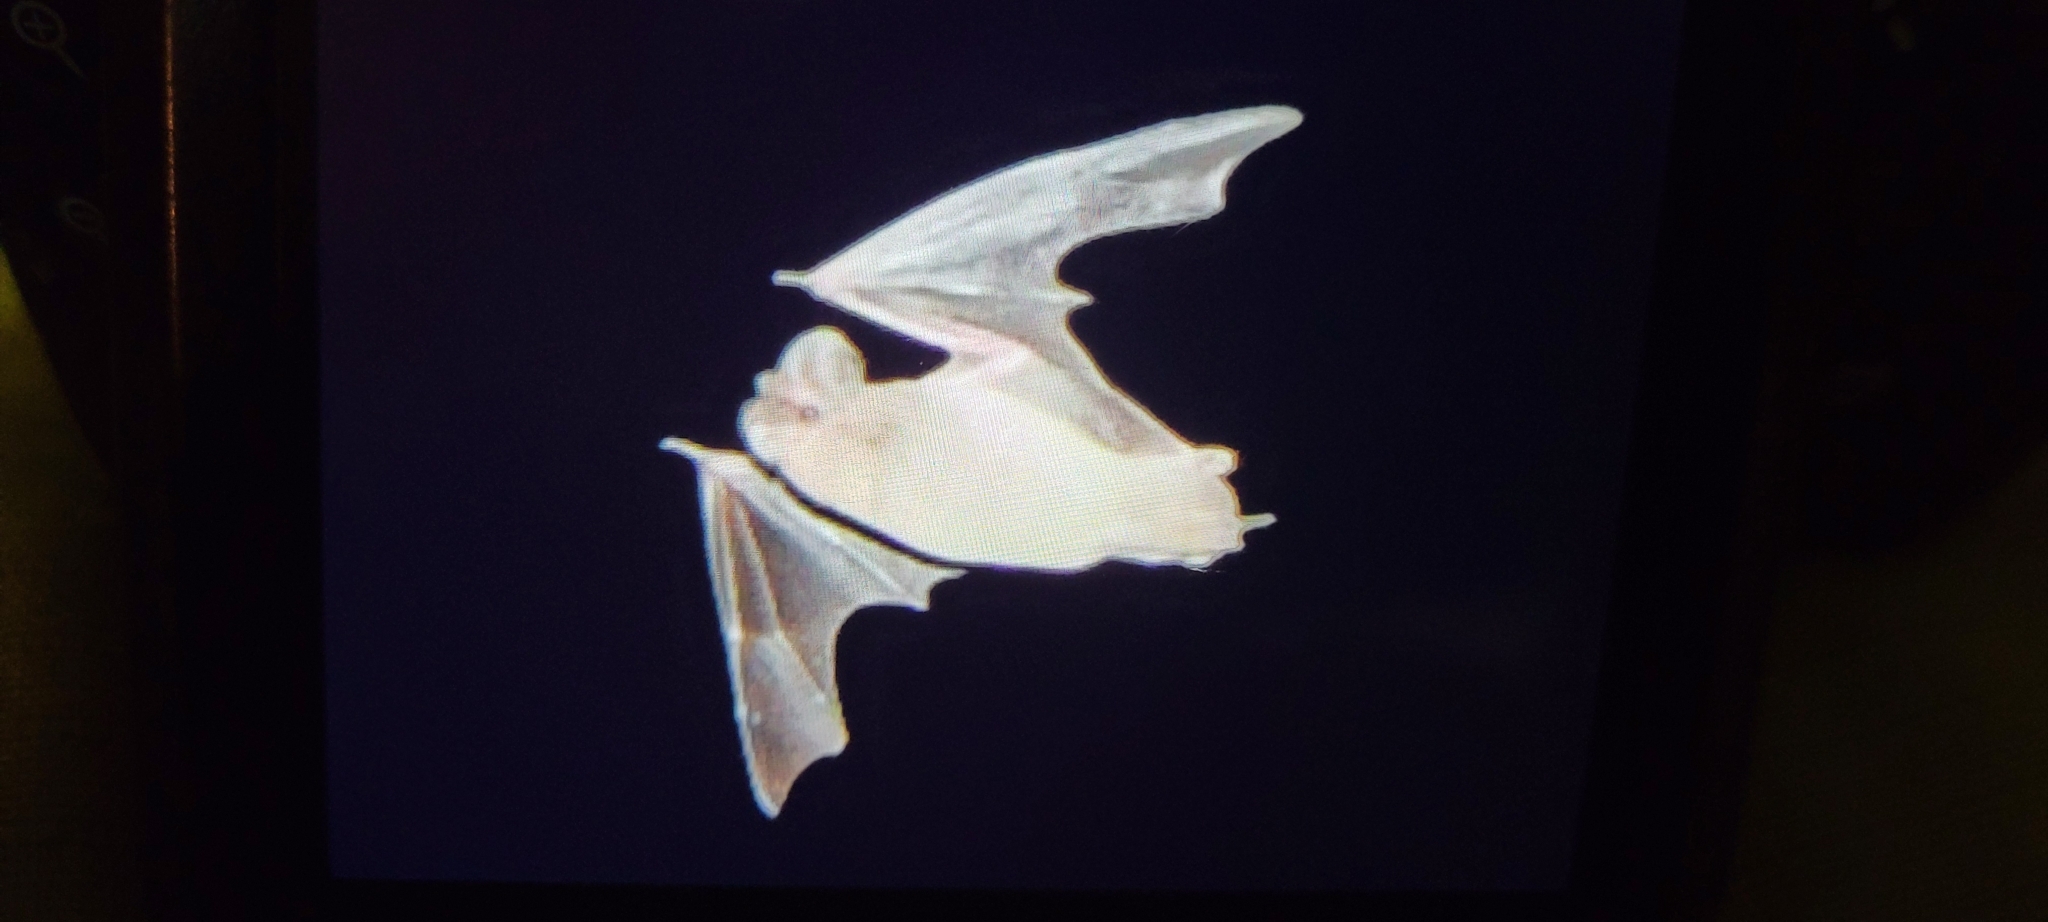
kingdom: Animalia
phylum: Chordata
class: Mammalia
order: Chiroptera
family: Molossidae
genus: Tadarida
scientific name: Tadarida brasiliensis
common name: Mexican free-tailed bat
